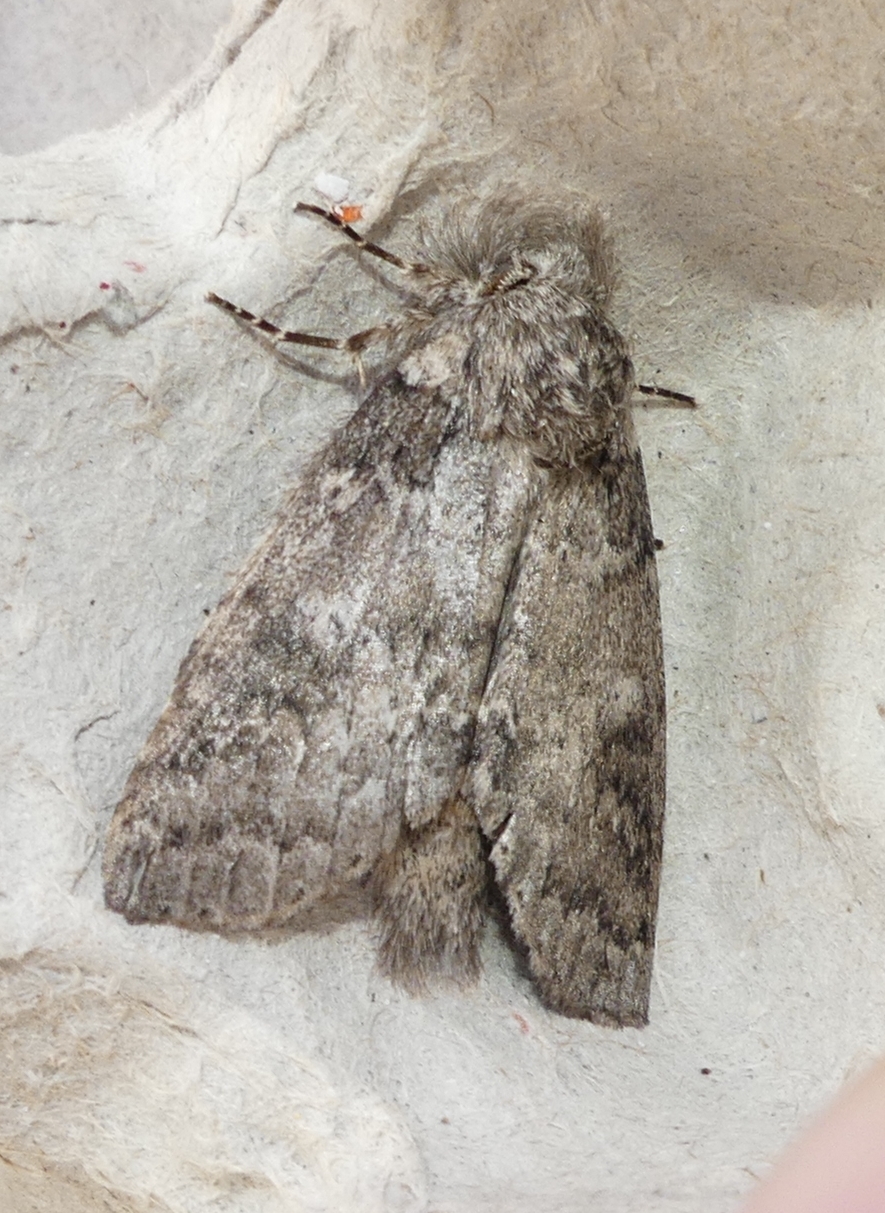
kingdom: Animalia
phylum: Arthropoda
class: Insecta
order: Lepidoptera
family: Notodontidae
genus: Lochmaeus
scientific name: Lochmaeus manteo
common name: Variable oakleaf caterpillar moth
